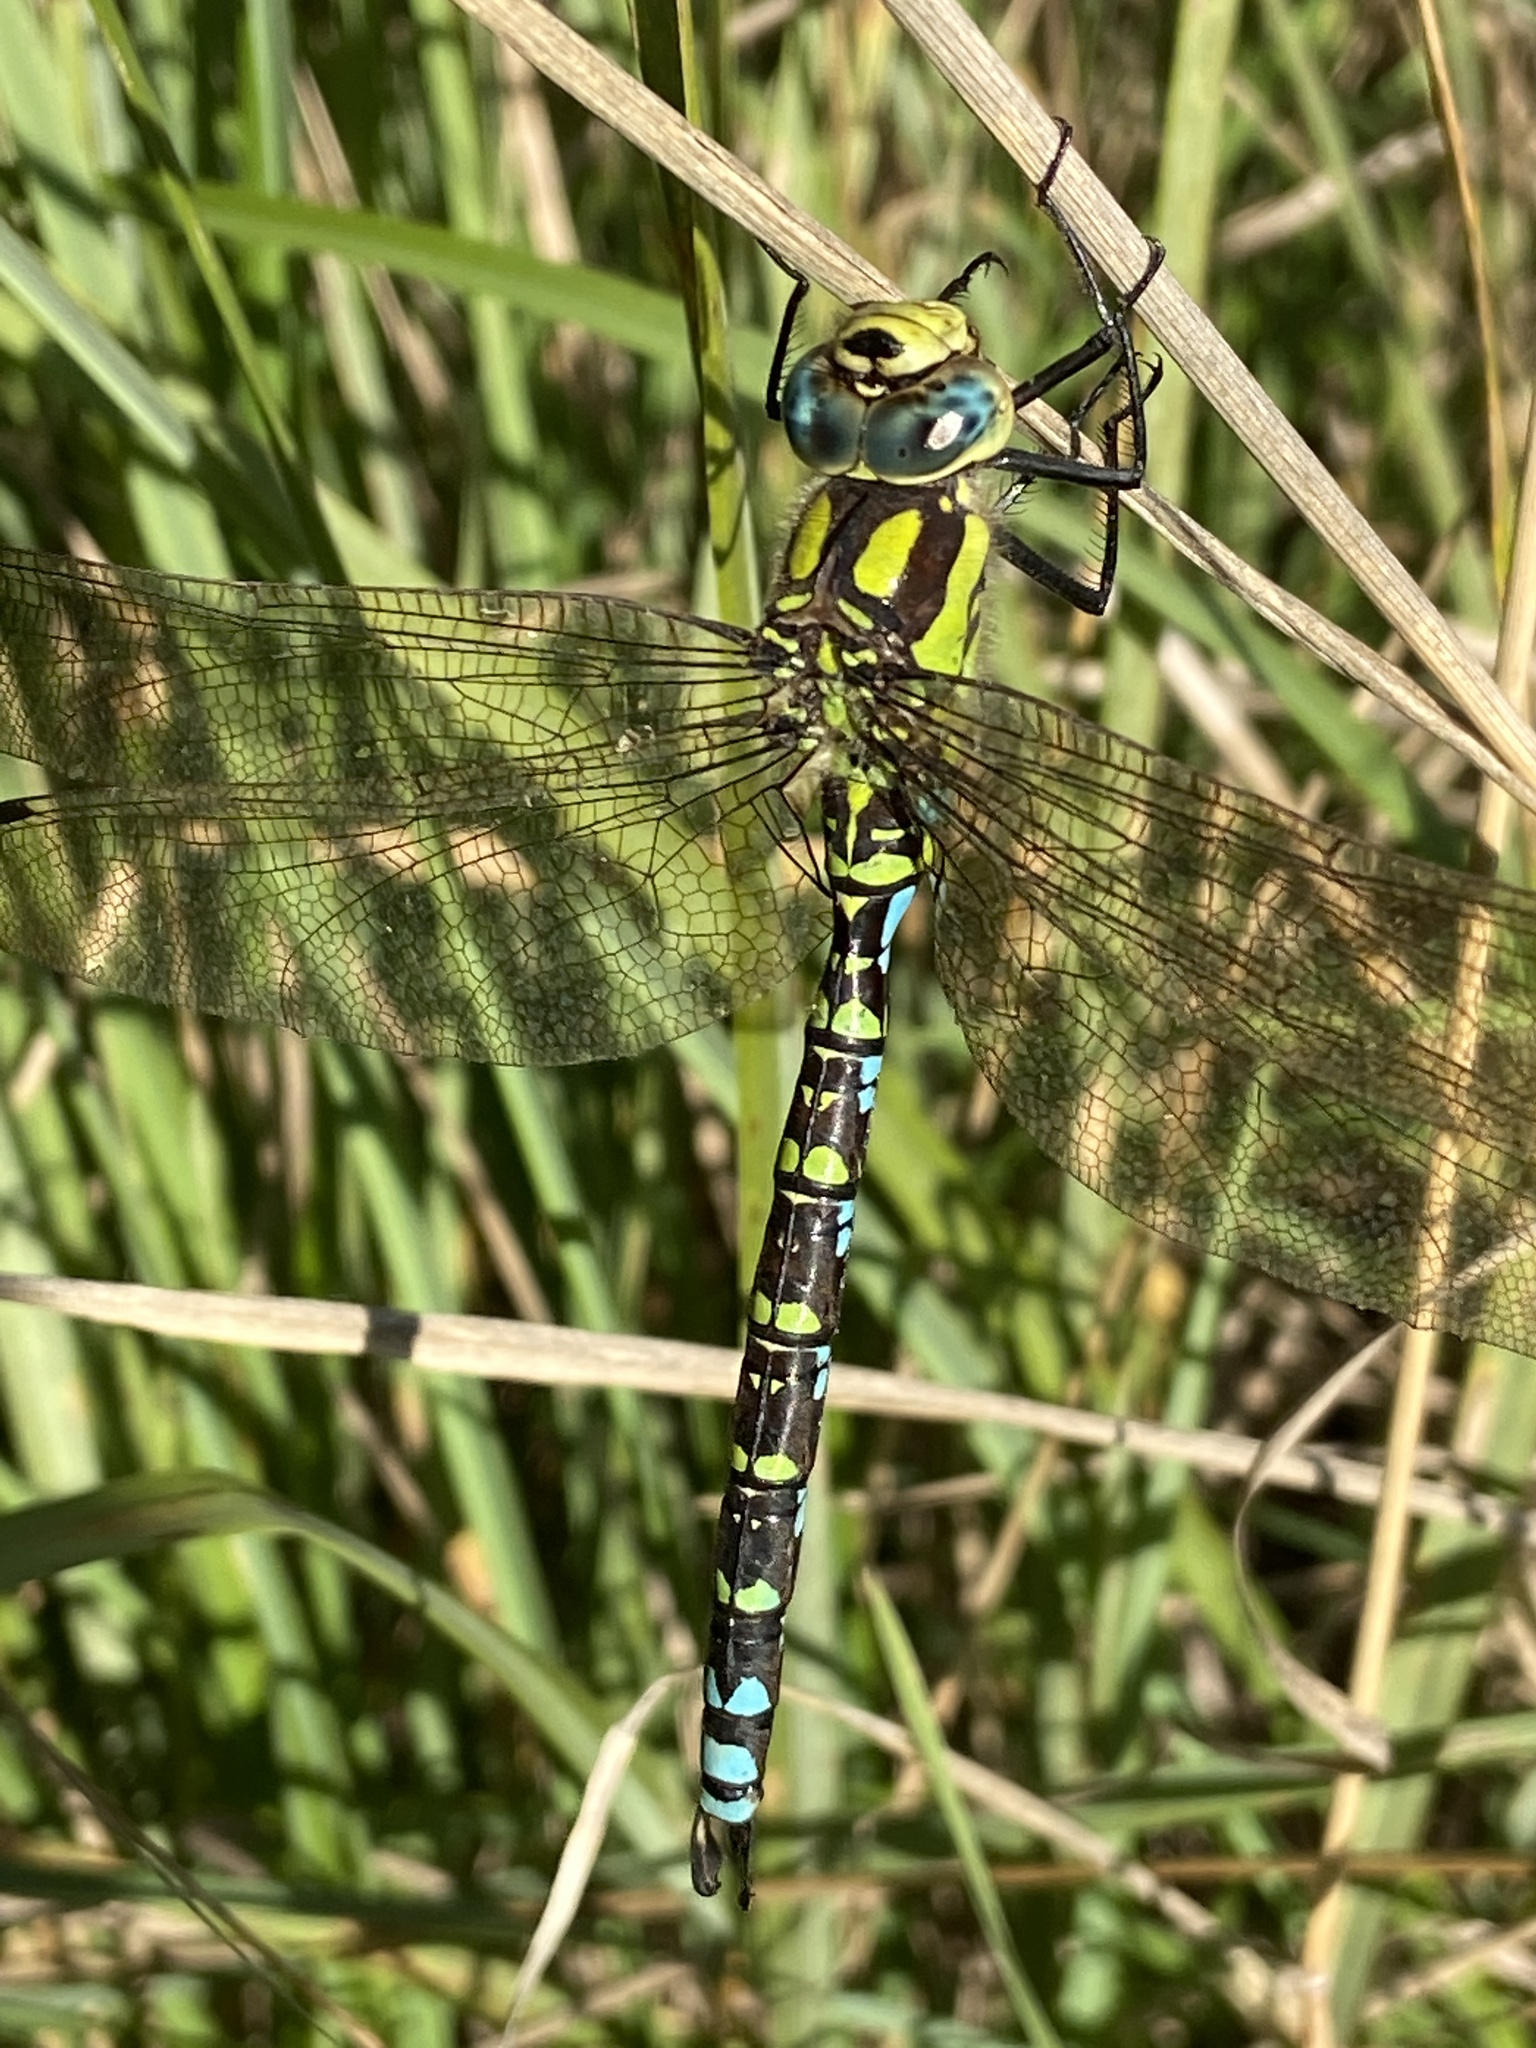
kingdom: Animalia
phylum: Arthropoda
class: Insecta
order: Odonata
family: Aeshnidae
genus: Aeshna
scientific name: Aeshna cyanea
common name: Southern hawker
